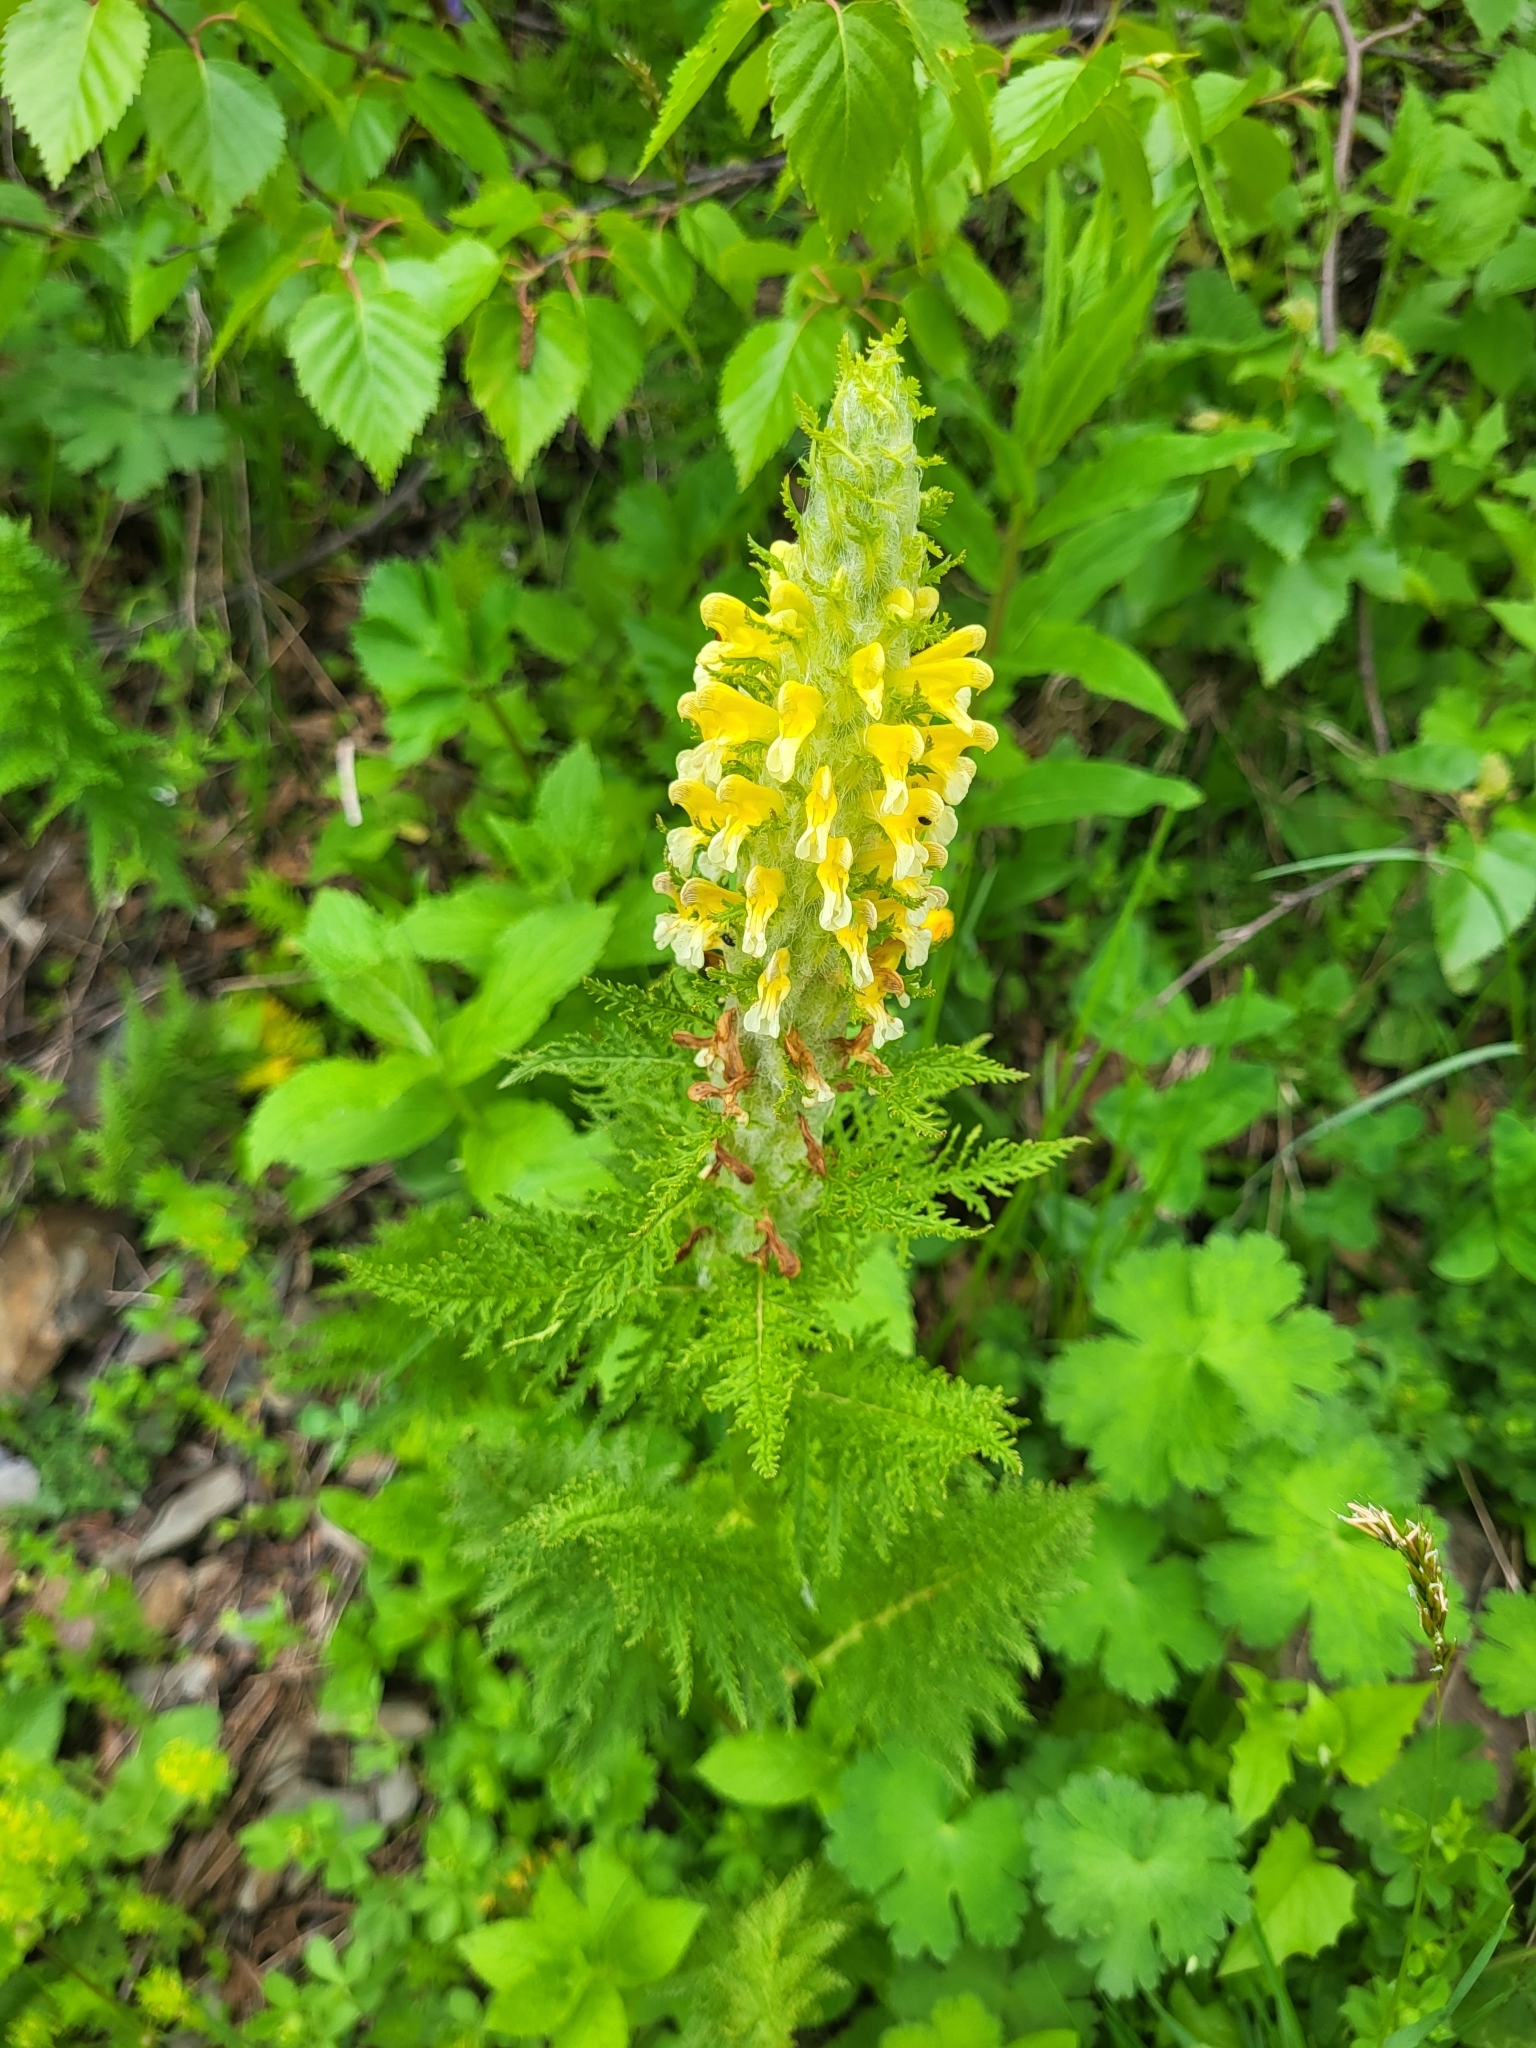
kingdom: Plantae
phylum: Tracheophyta
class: Magnoliopsida
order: Lamiales
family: Orobanchaceae
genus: Pedicularis
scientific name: Pedicularis condensata
